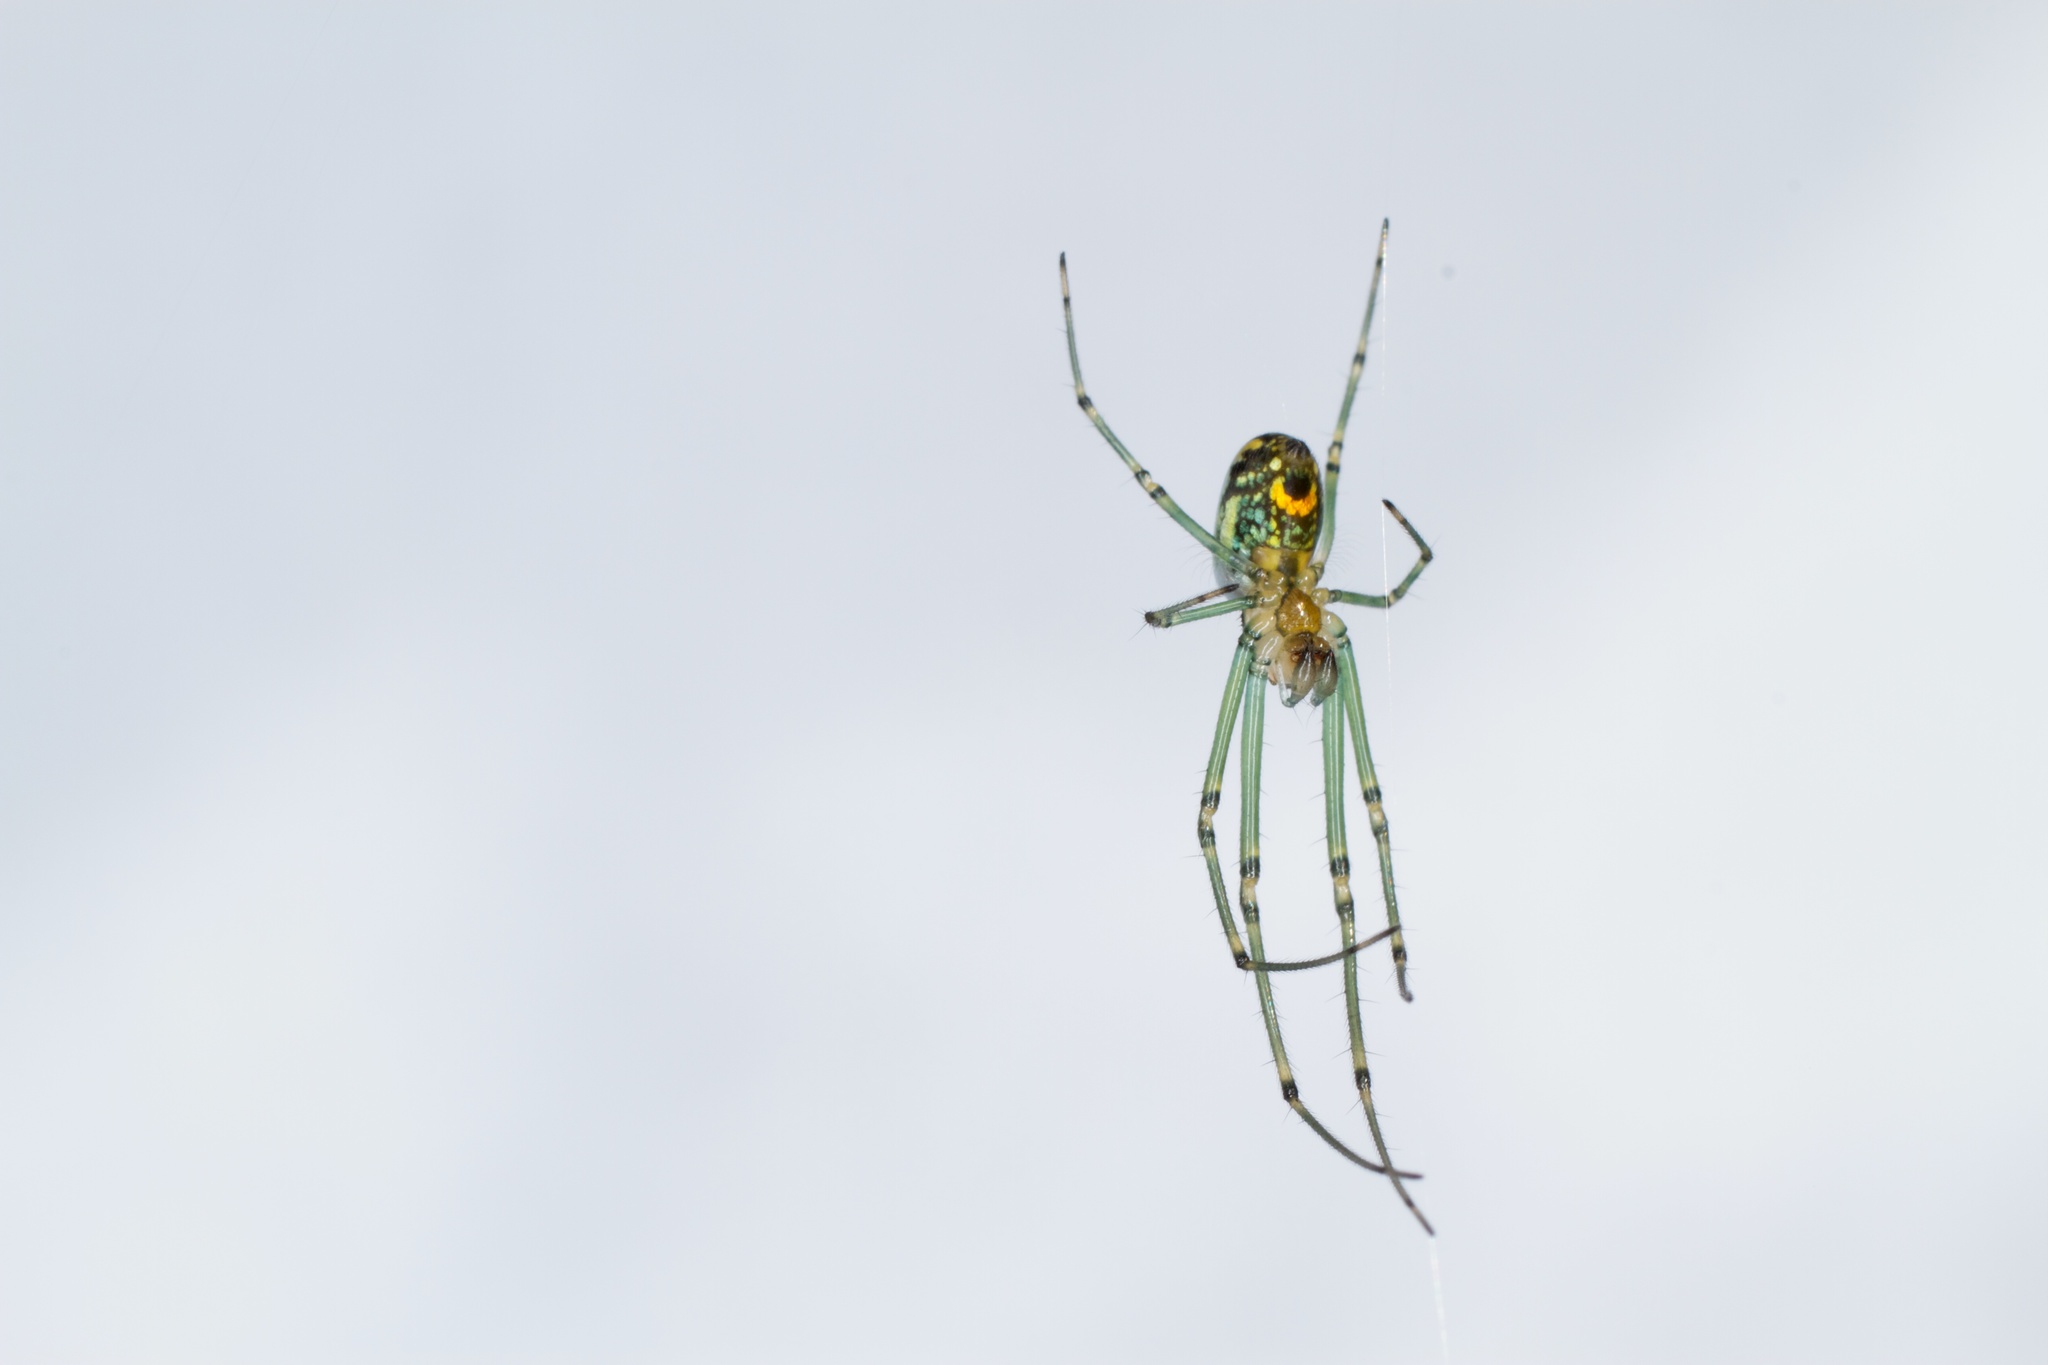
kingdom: Animalia
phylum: Arthropoda
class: Arachnida
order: Araneae
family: Tetragnathidae
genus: Leucauge
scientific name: Leucauge venusta
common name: Longjawed orb weavers
